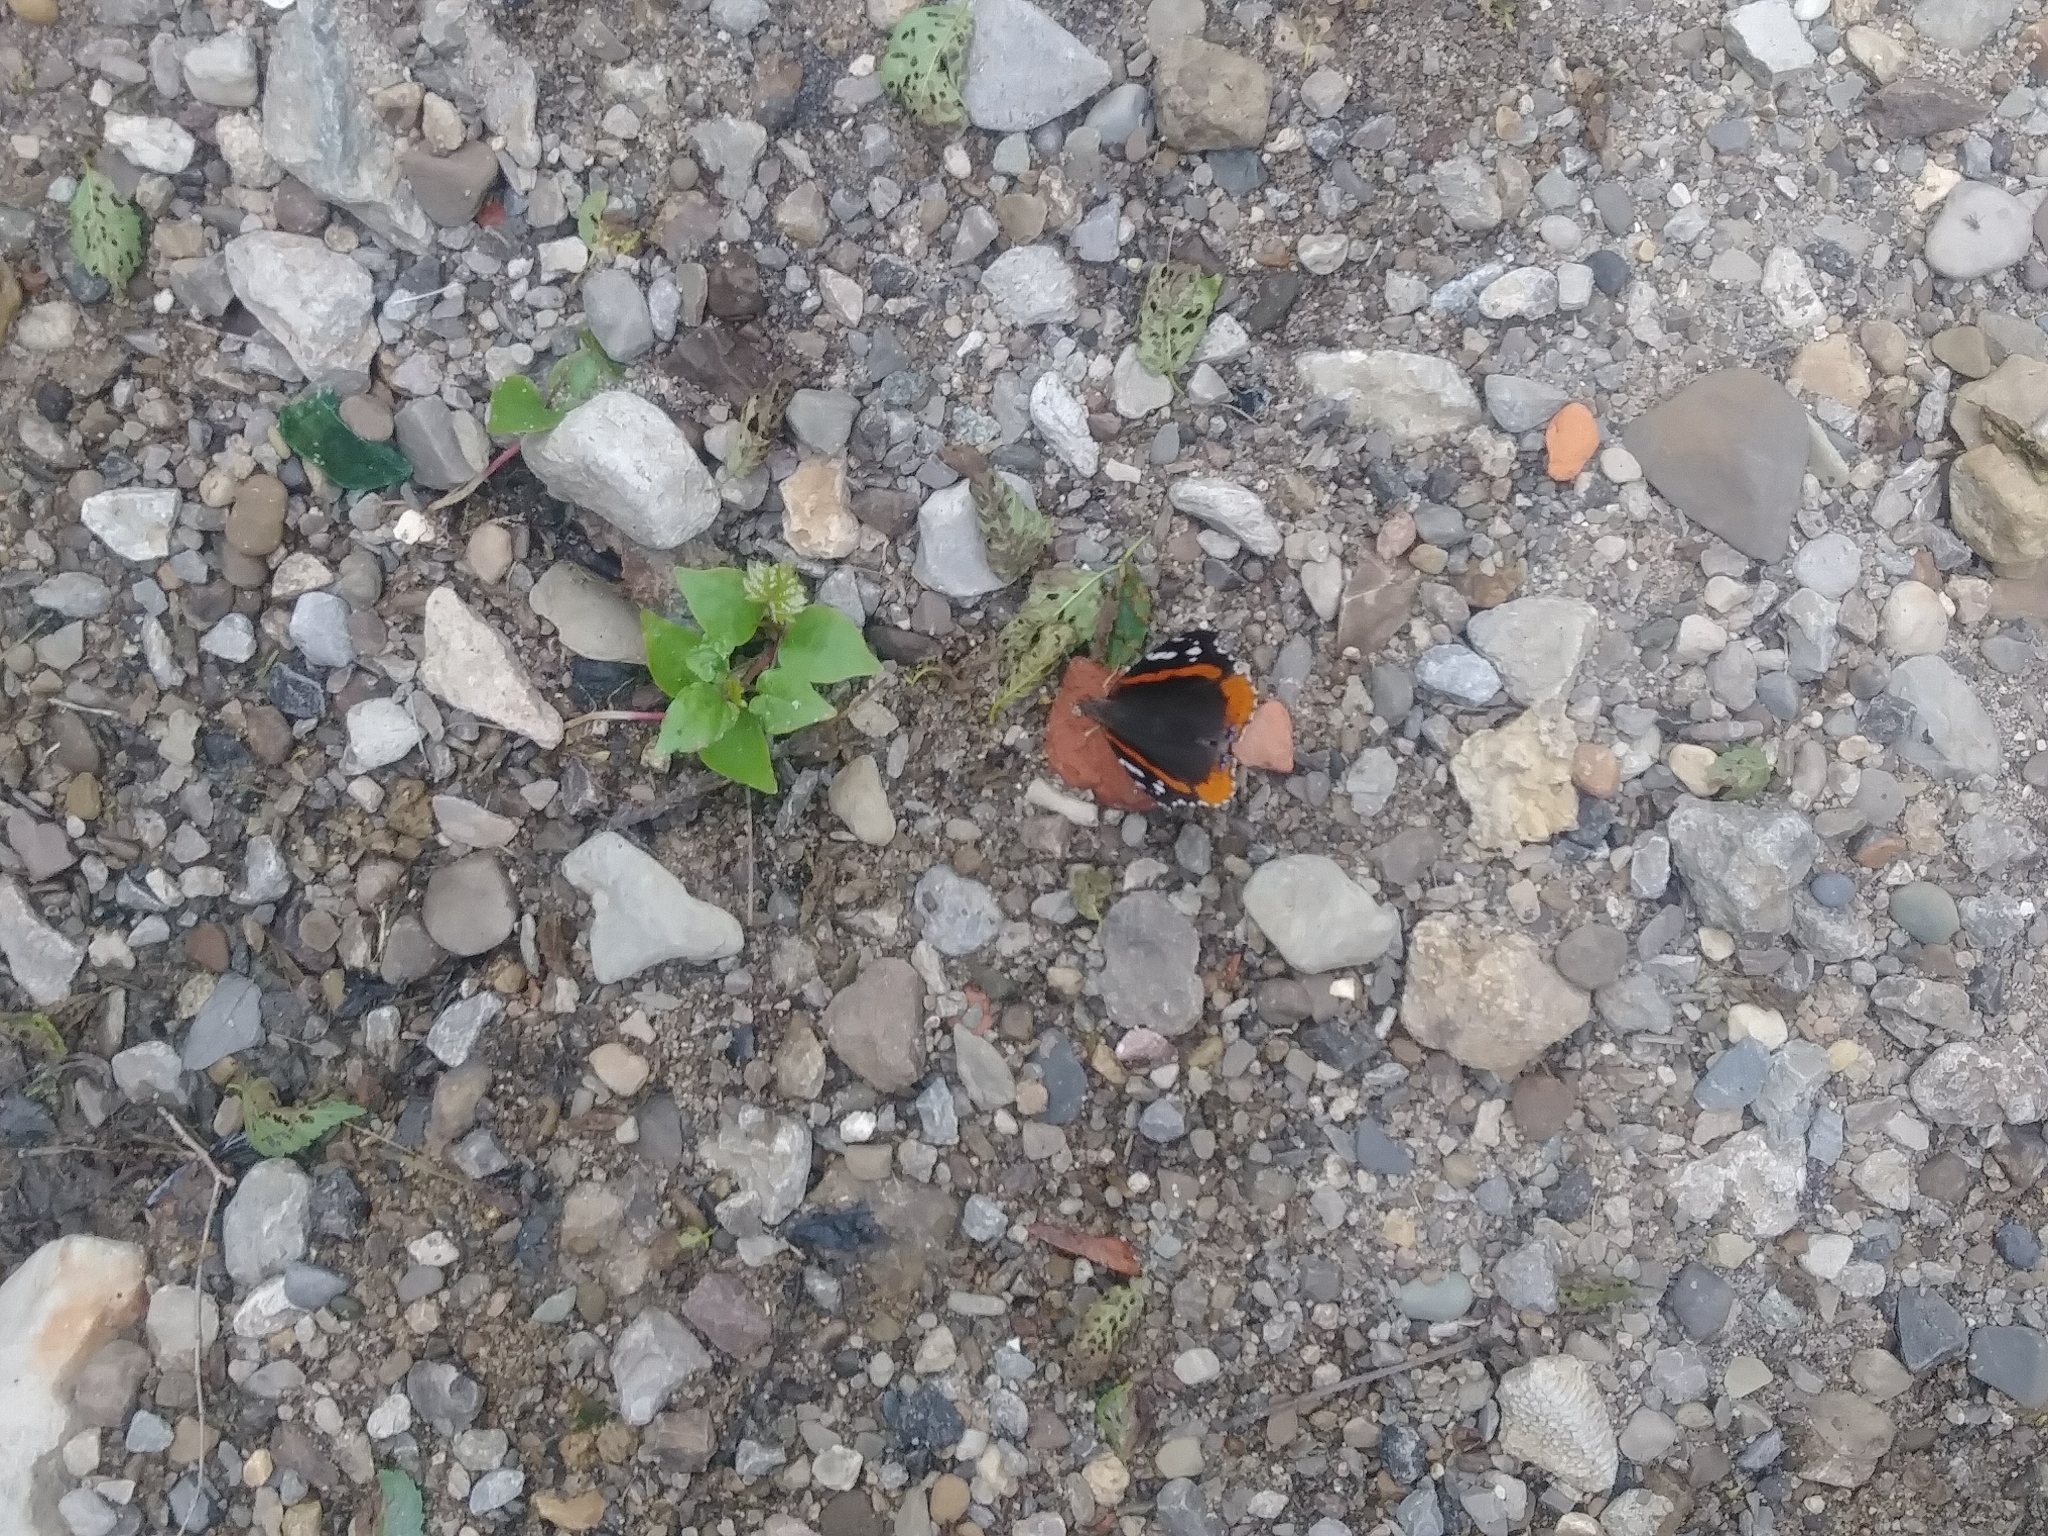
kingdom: Animalia
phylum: Arthropoda
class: Insecta
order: Lepidoptera
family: Nymphalidae
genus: Vanessa
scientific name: Vanessa atalanta
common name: Red admiral
